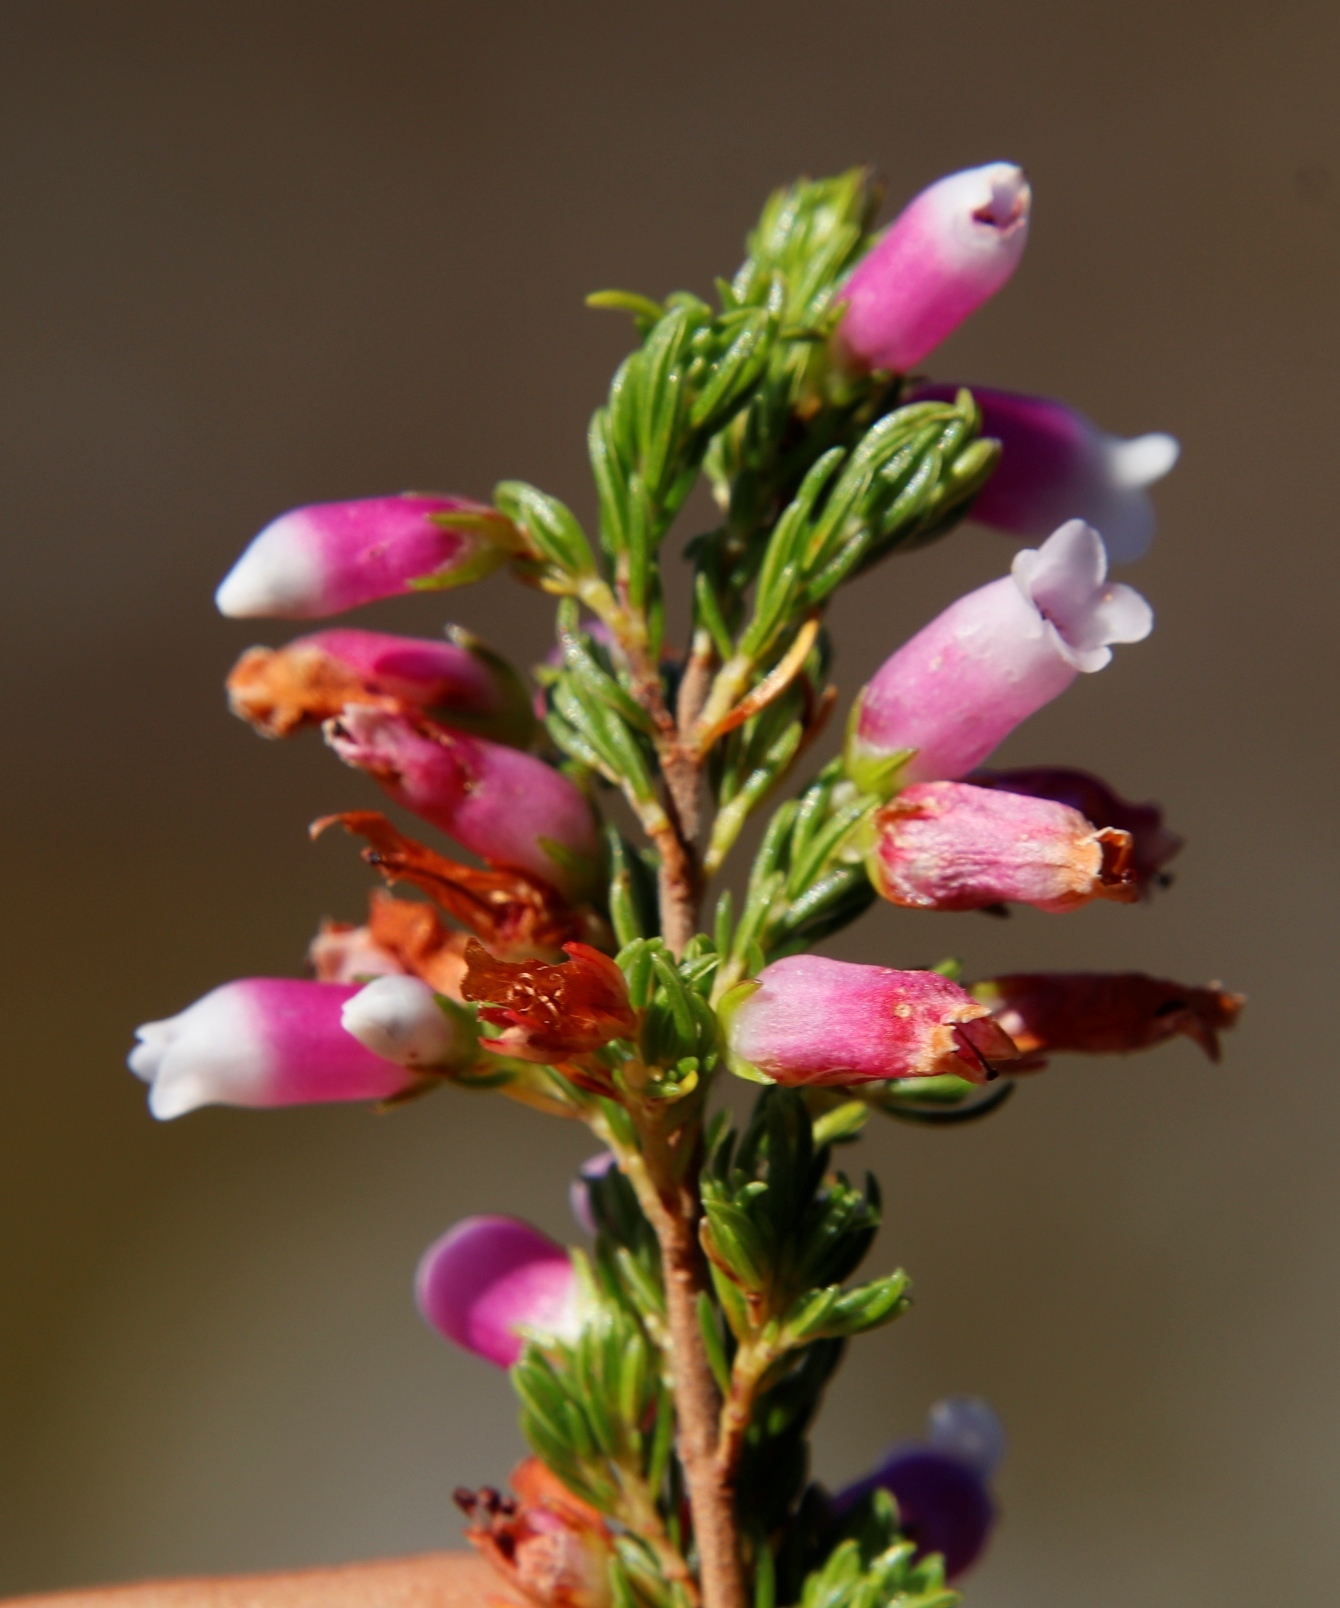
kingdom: Plantae
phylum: Tracheophyta
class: Magnoliopsida
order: Ericales
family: Ericaceae
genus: Erica
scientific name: Erica sitiens
